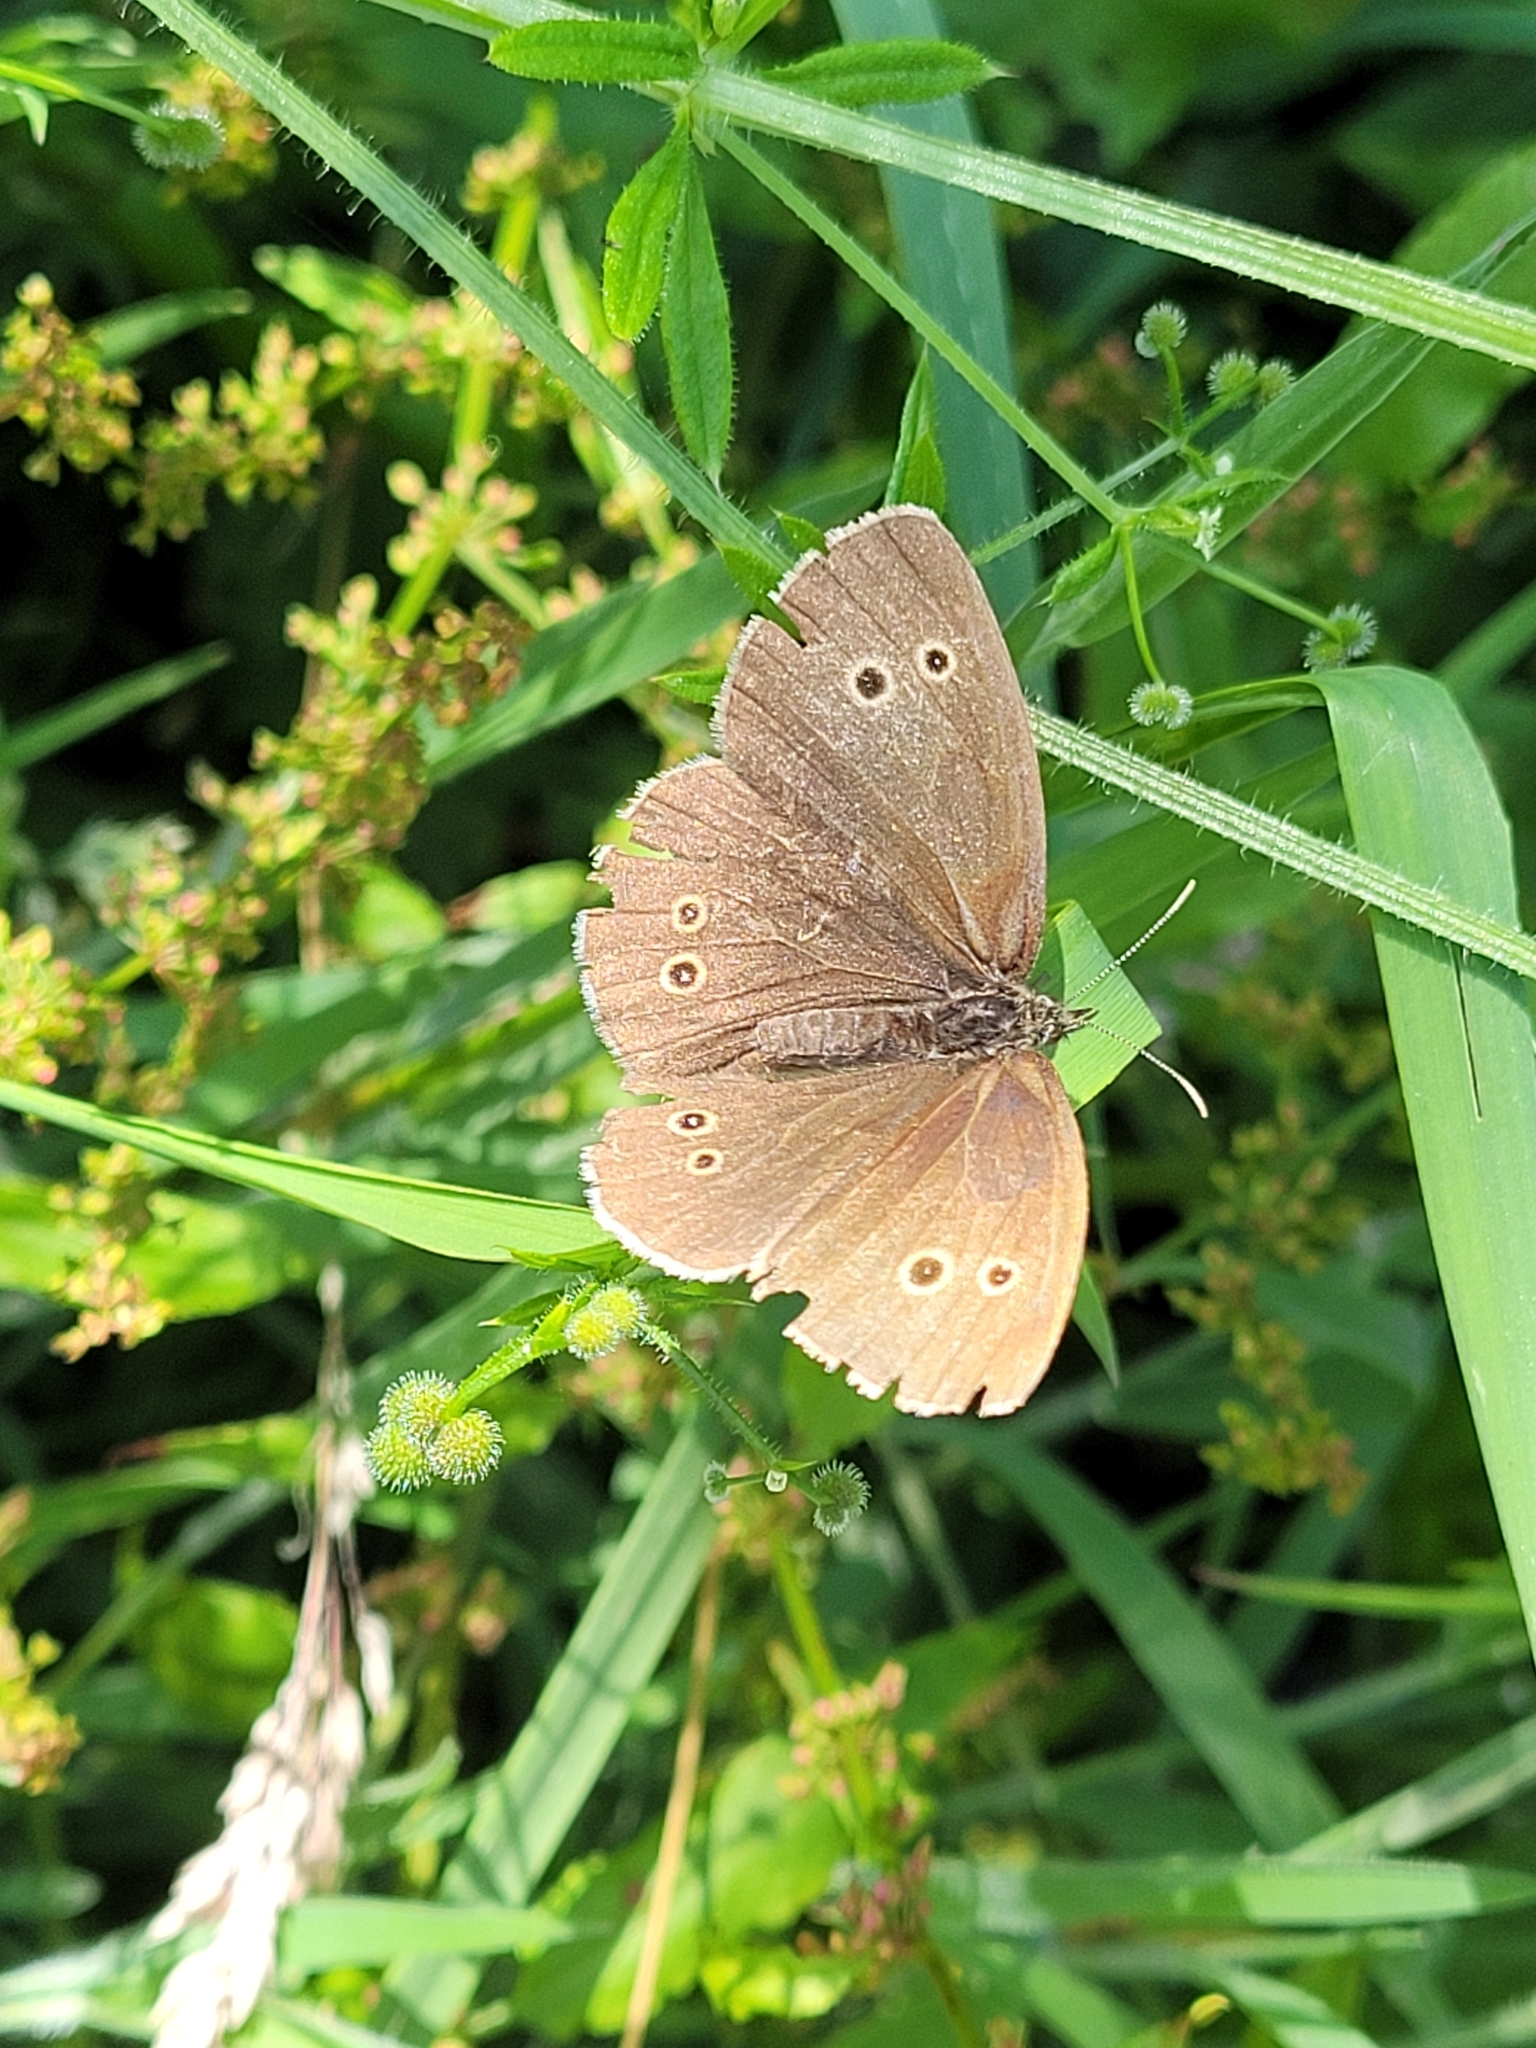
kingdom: Animalia
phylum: Arthropoda
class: Insecta
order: Lepidoptera
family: Nymphalidae
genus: Aphantopus
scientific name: Aphantopus hyperantus
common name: Ringlet
